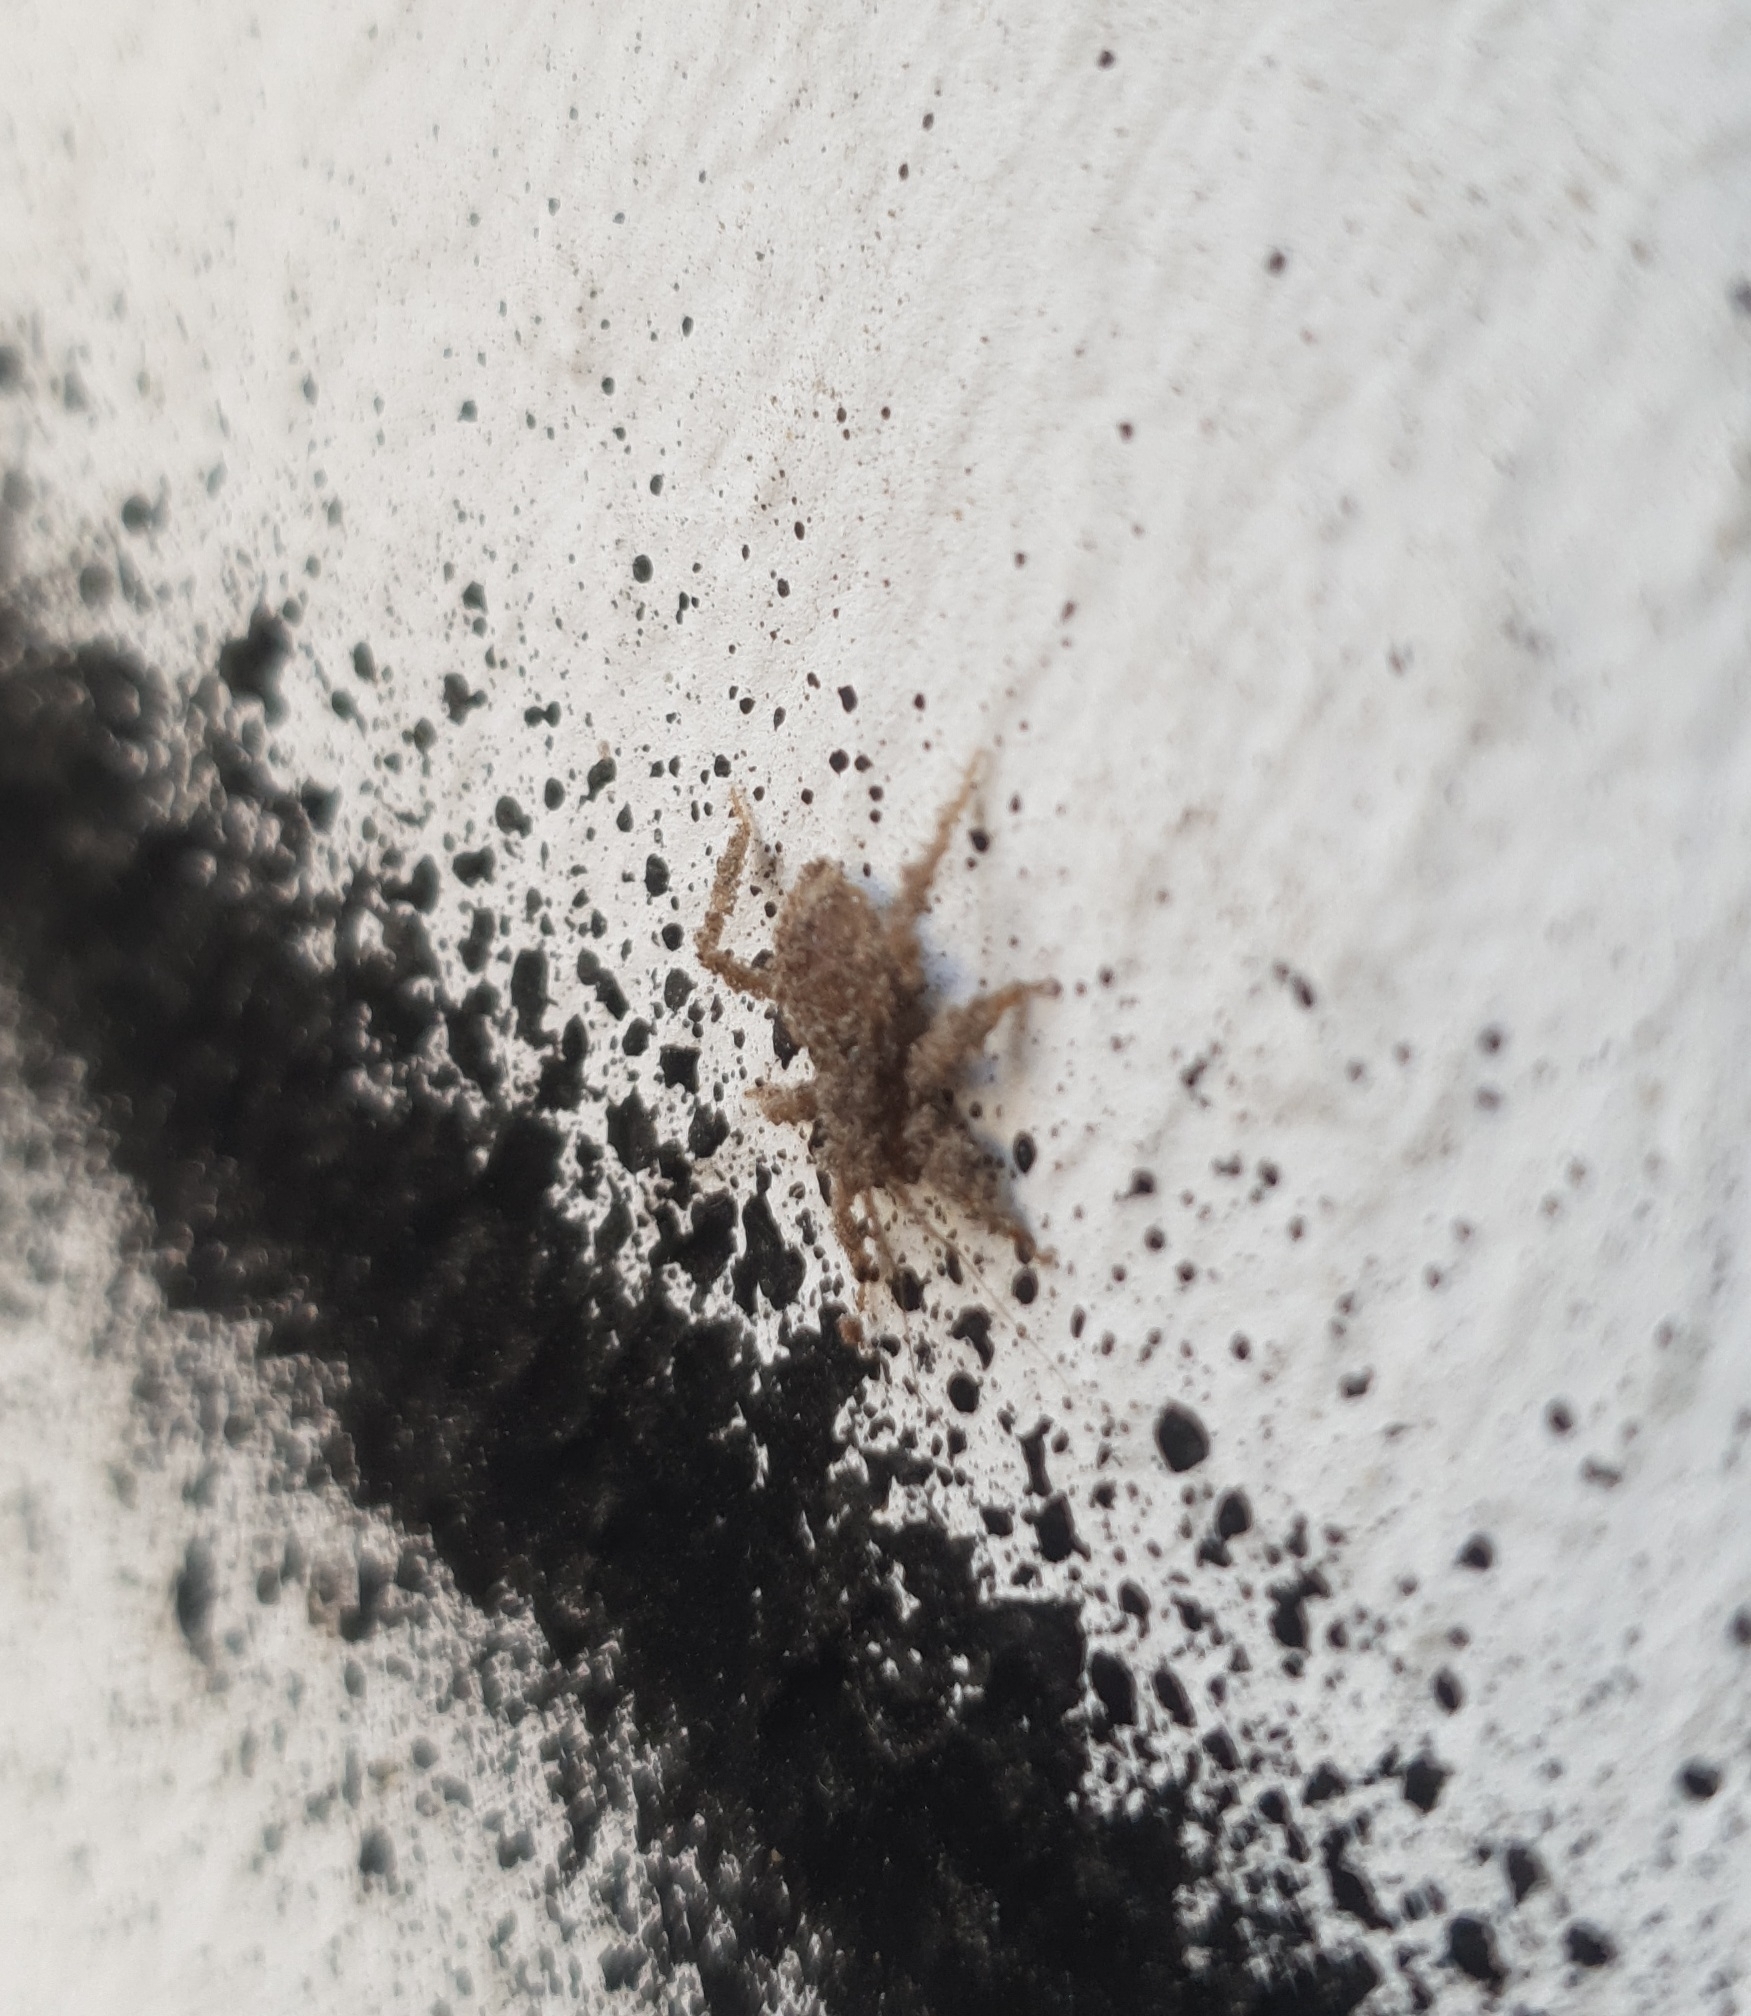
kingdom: Animalia
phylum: Arthropoda
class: Insecta
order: Hemiptera
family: Reduviidae
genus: Reduvius
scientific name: Reduvius personatus
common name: Masked hunter
